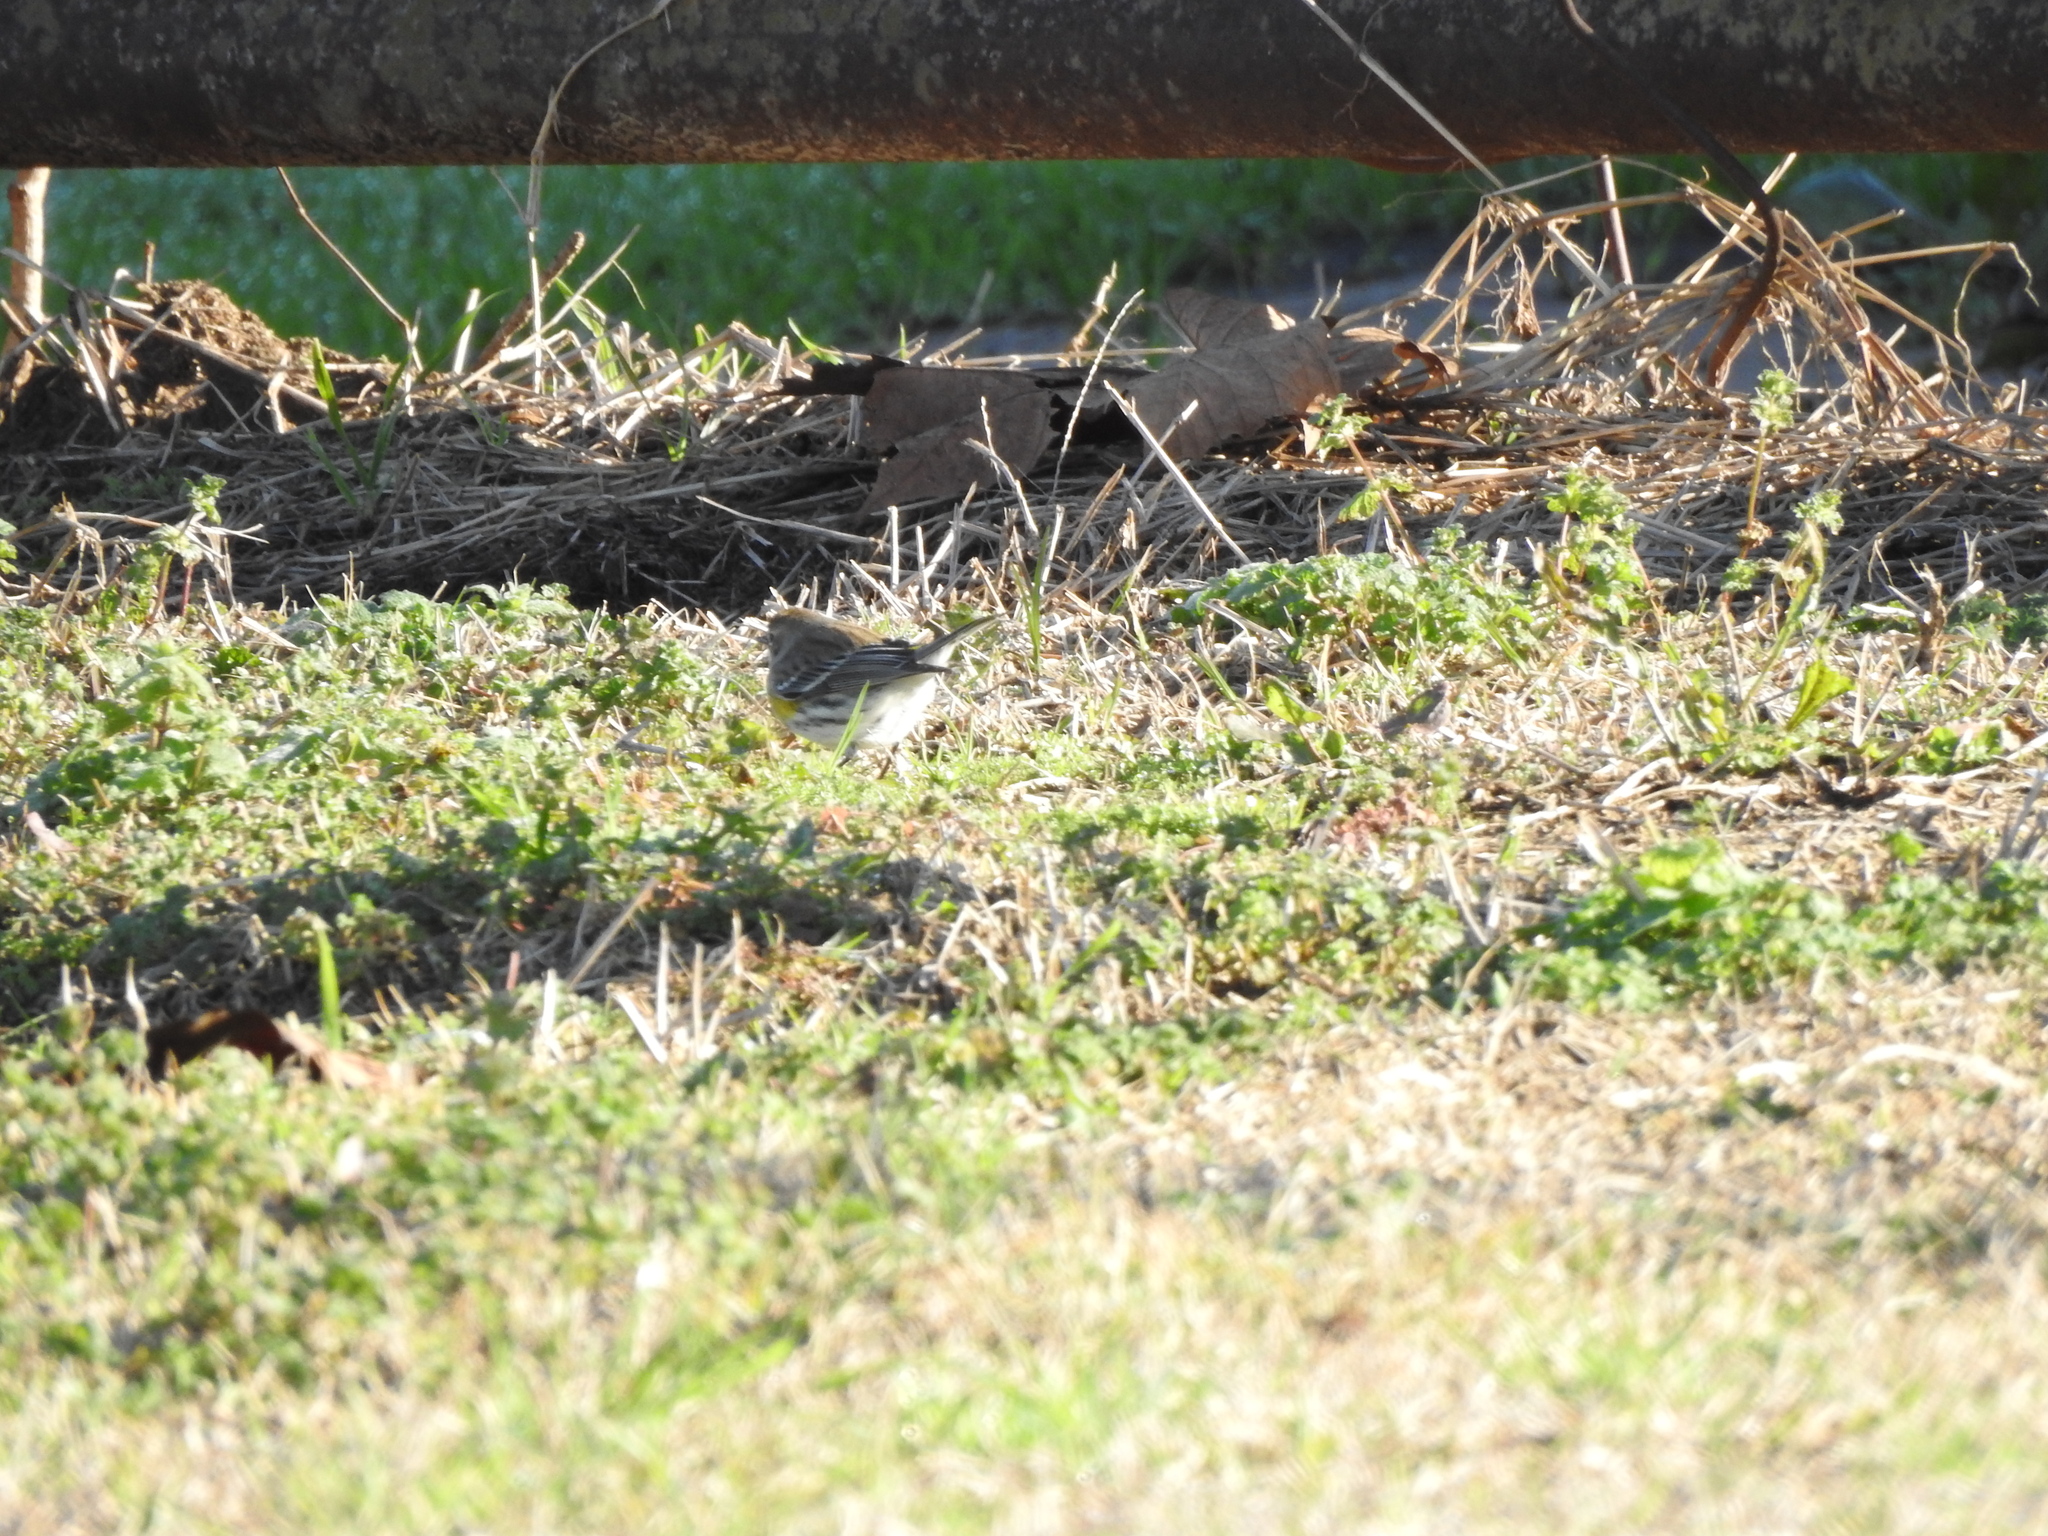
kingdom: Animalia
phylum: Chordata
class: Aves
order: Passeriformes
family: Parulidae
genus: Setophaga
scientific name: Setophaga coronata
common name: Myrtle warbler
